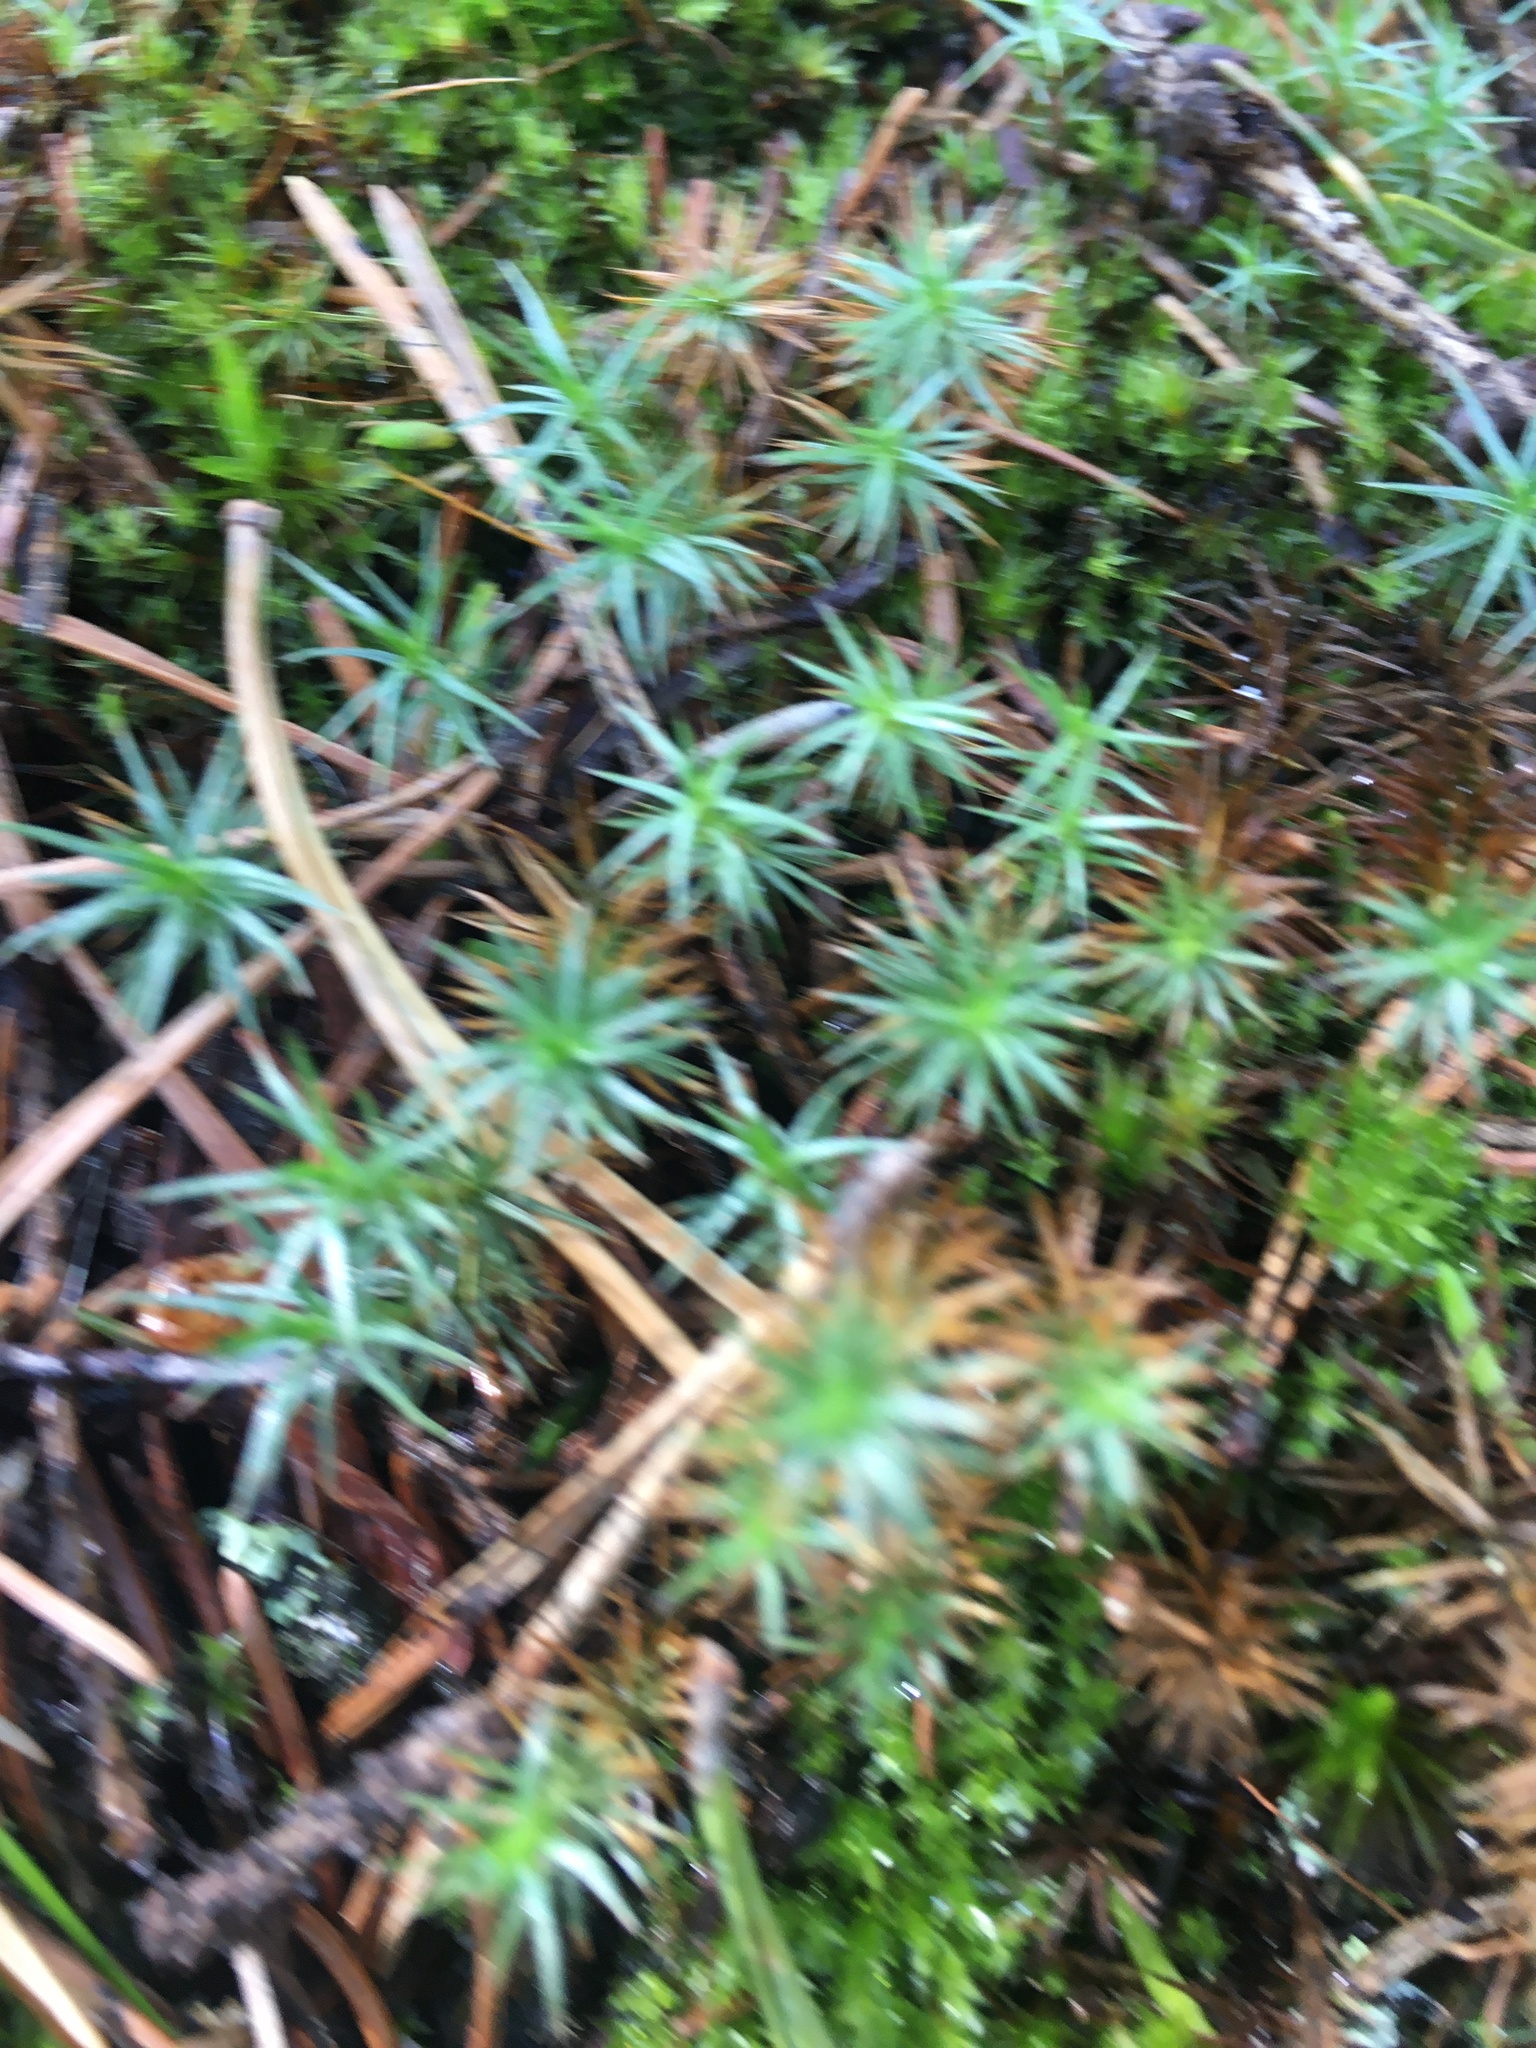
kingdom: Plantae
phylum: Bryophyta
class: Polytrichopsida
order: Polytrichales
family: Polytrichaceae
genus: Polytrichum
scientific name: Polytrichum juniperinum
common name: Juniper haircap moss
